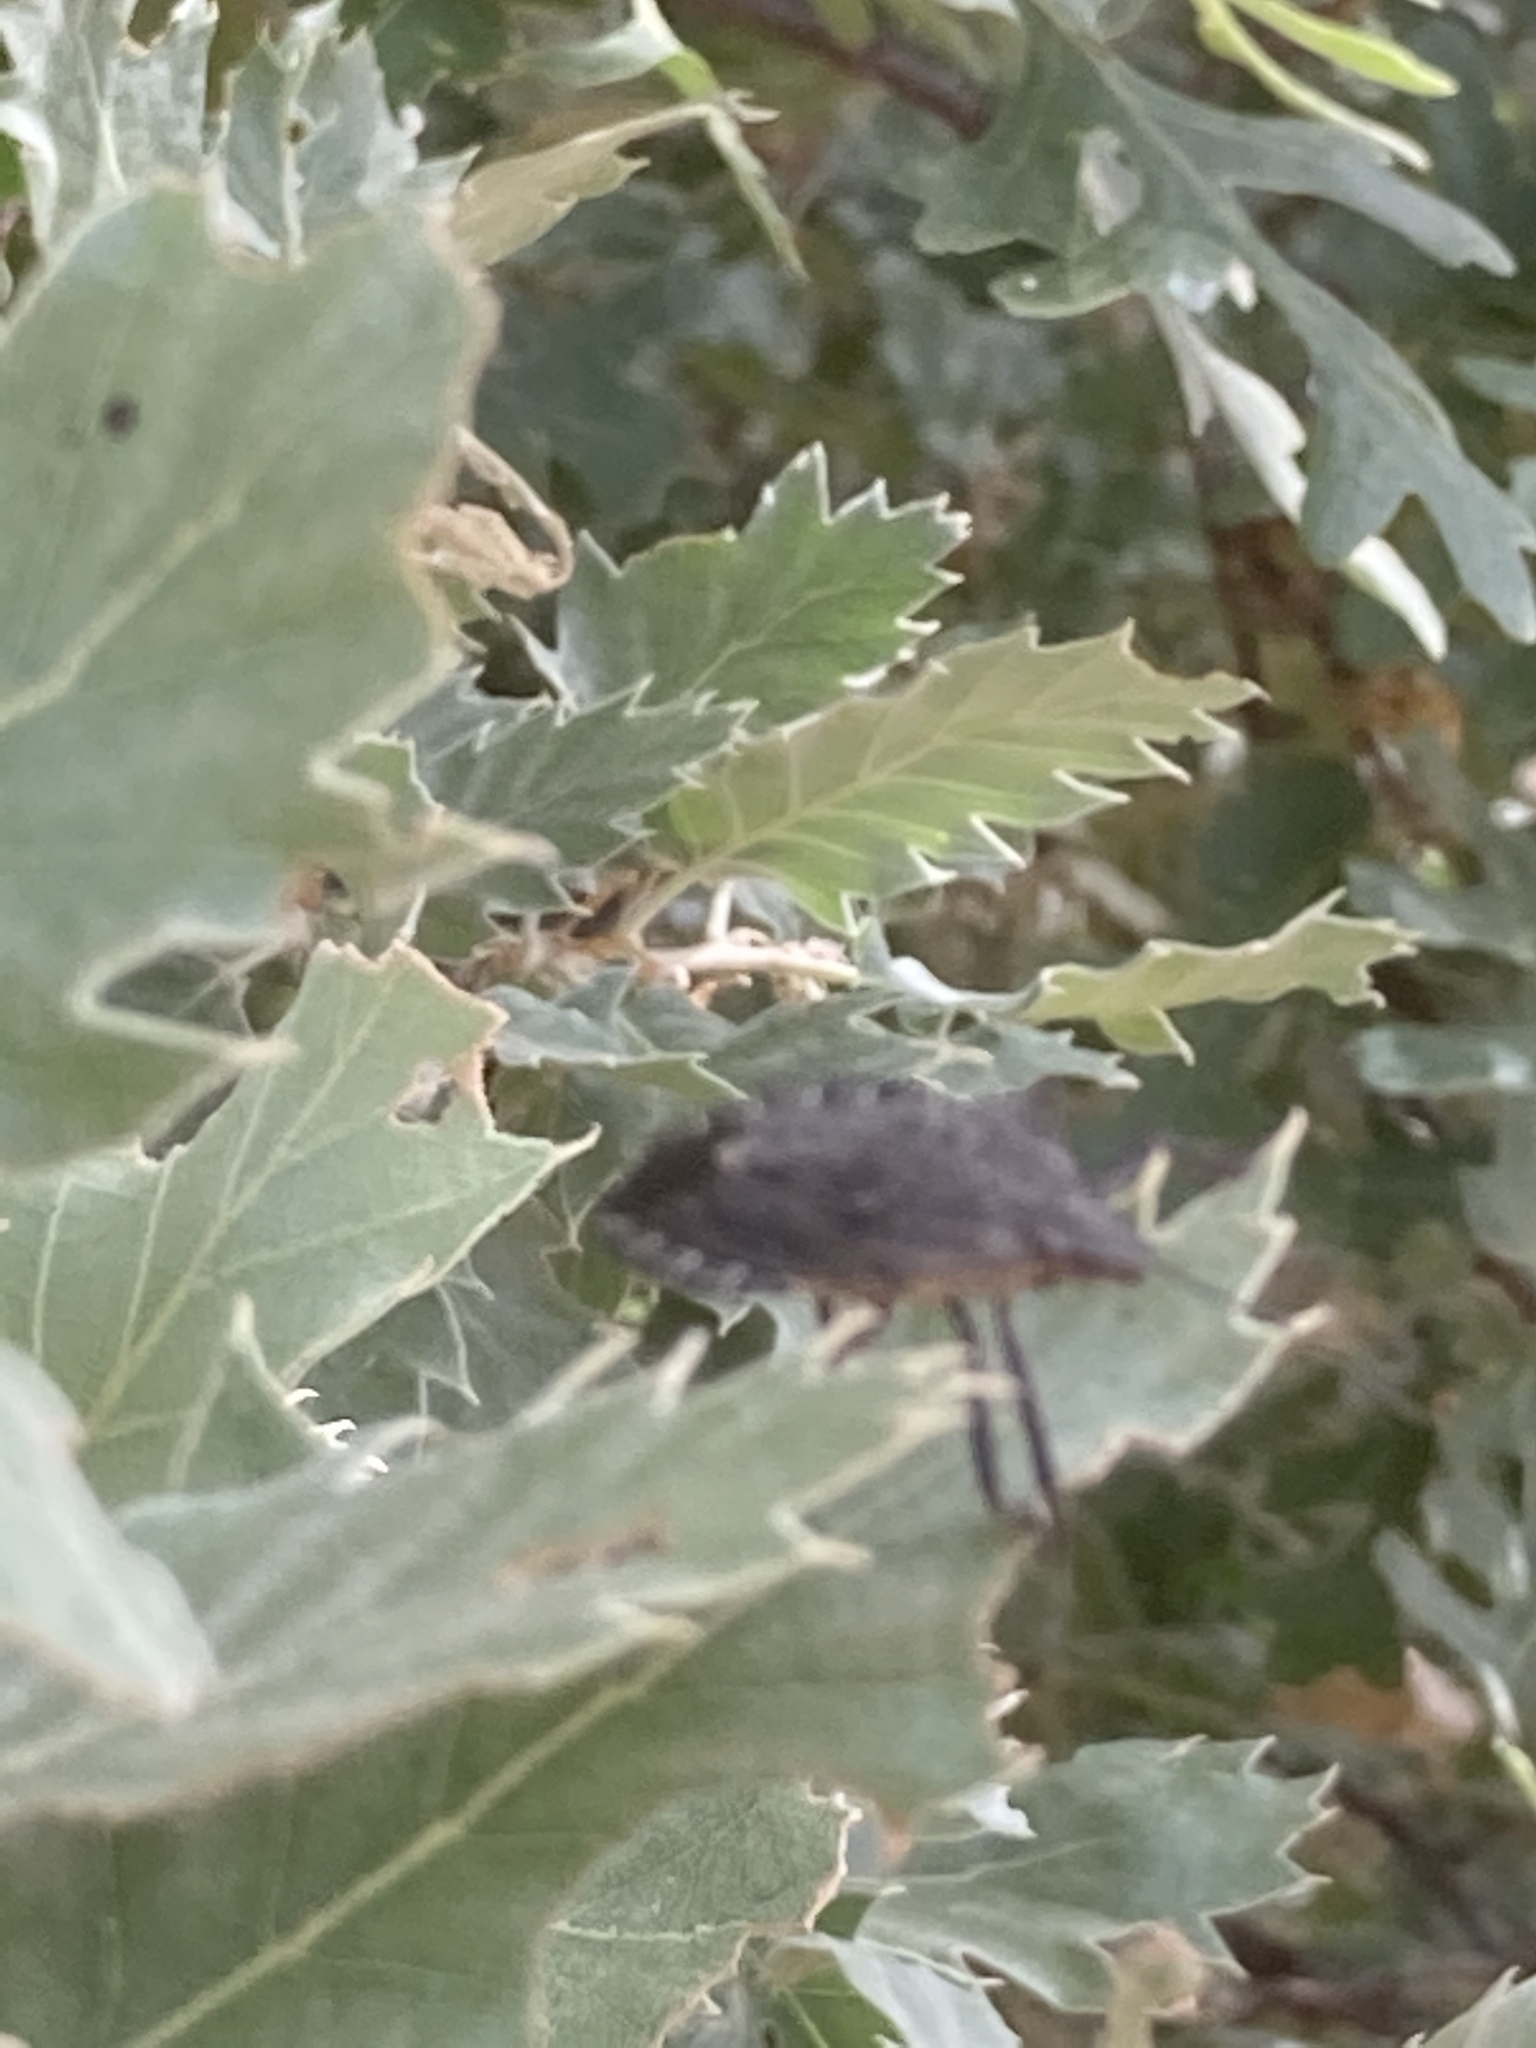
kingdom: Animalia
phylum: Arthropoda
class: Insecta
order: Hemiptera
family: Pentatomidae
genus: Mustha
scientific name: Mustha spinosula
